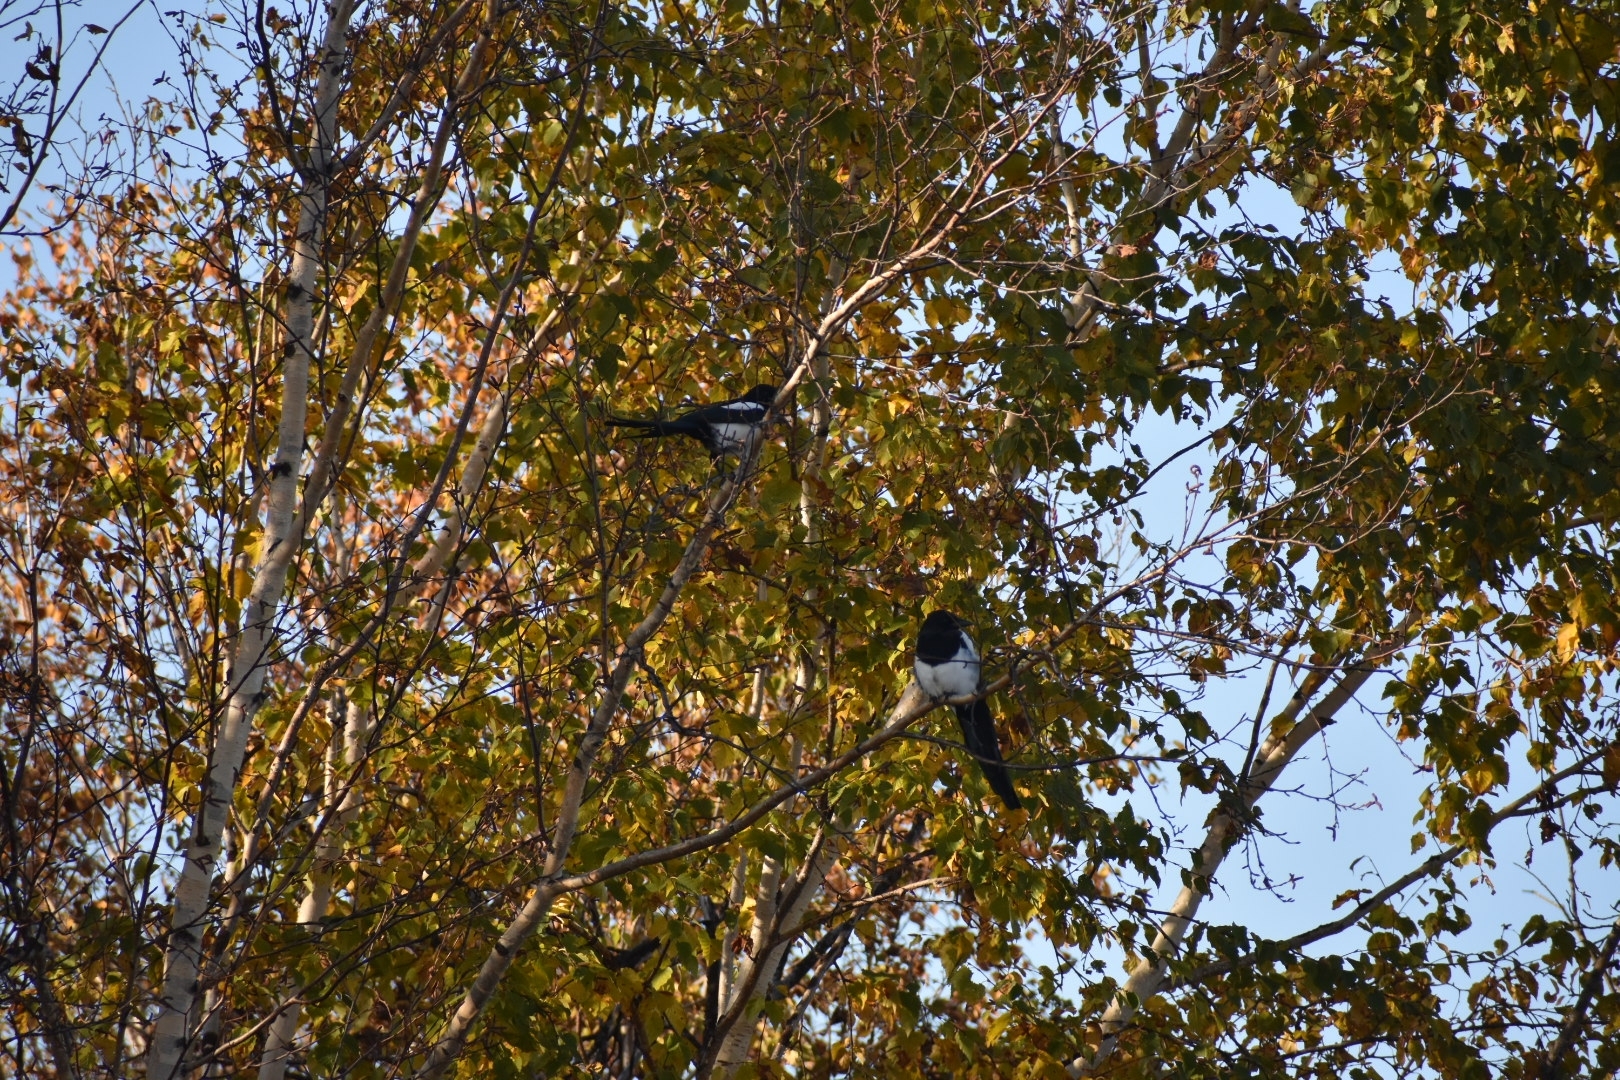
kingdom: Animalia
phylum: Chordata
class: Aves
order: Passeriformes
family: Corvidae
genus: Pica
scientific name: Pica pica
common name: Eurasian magpie
